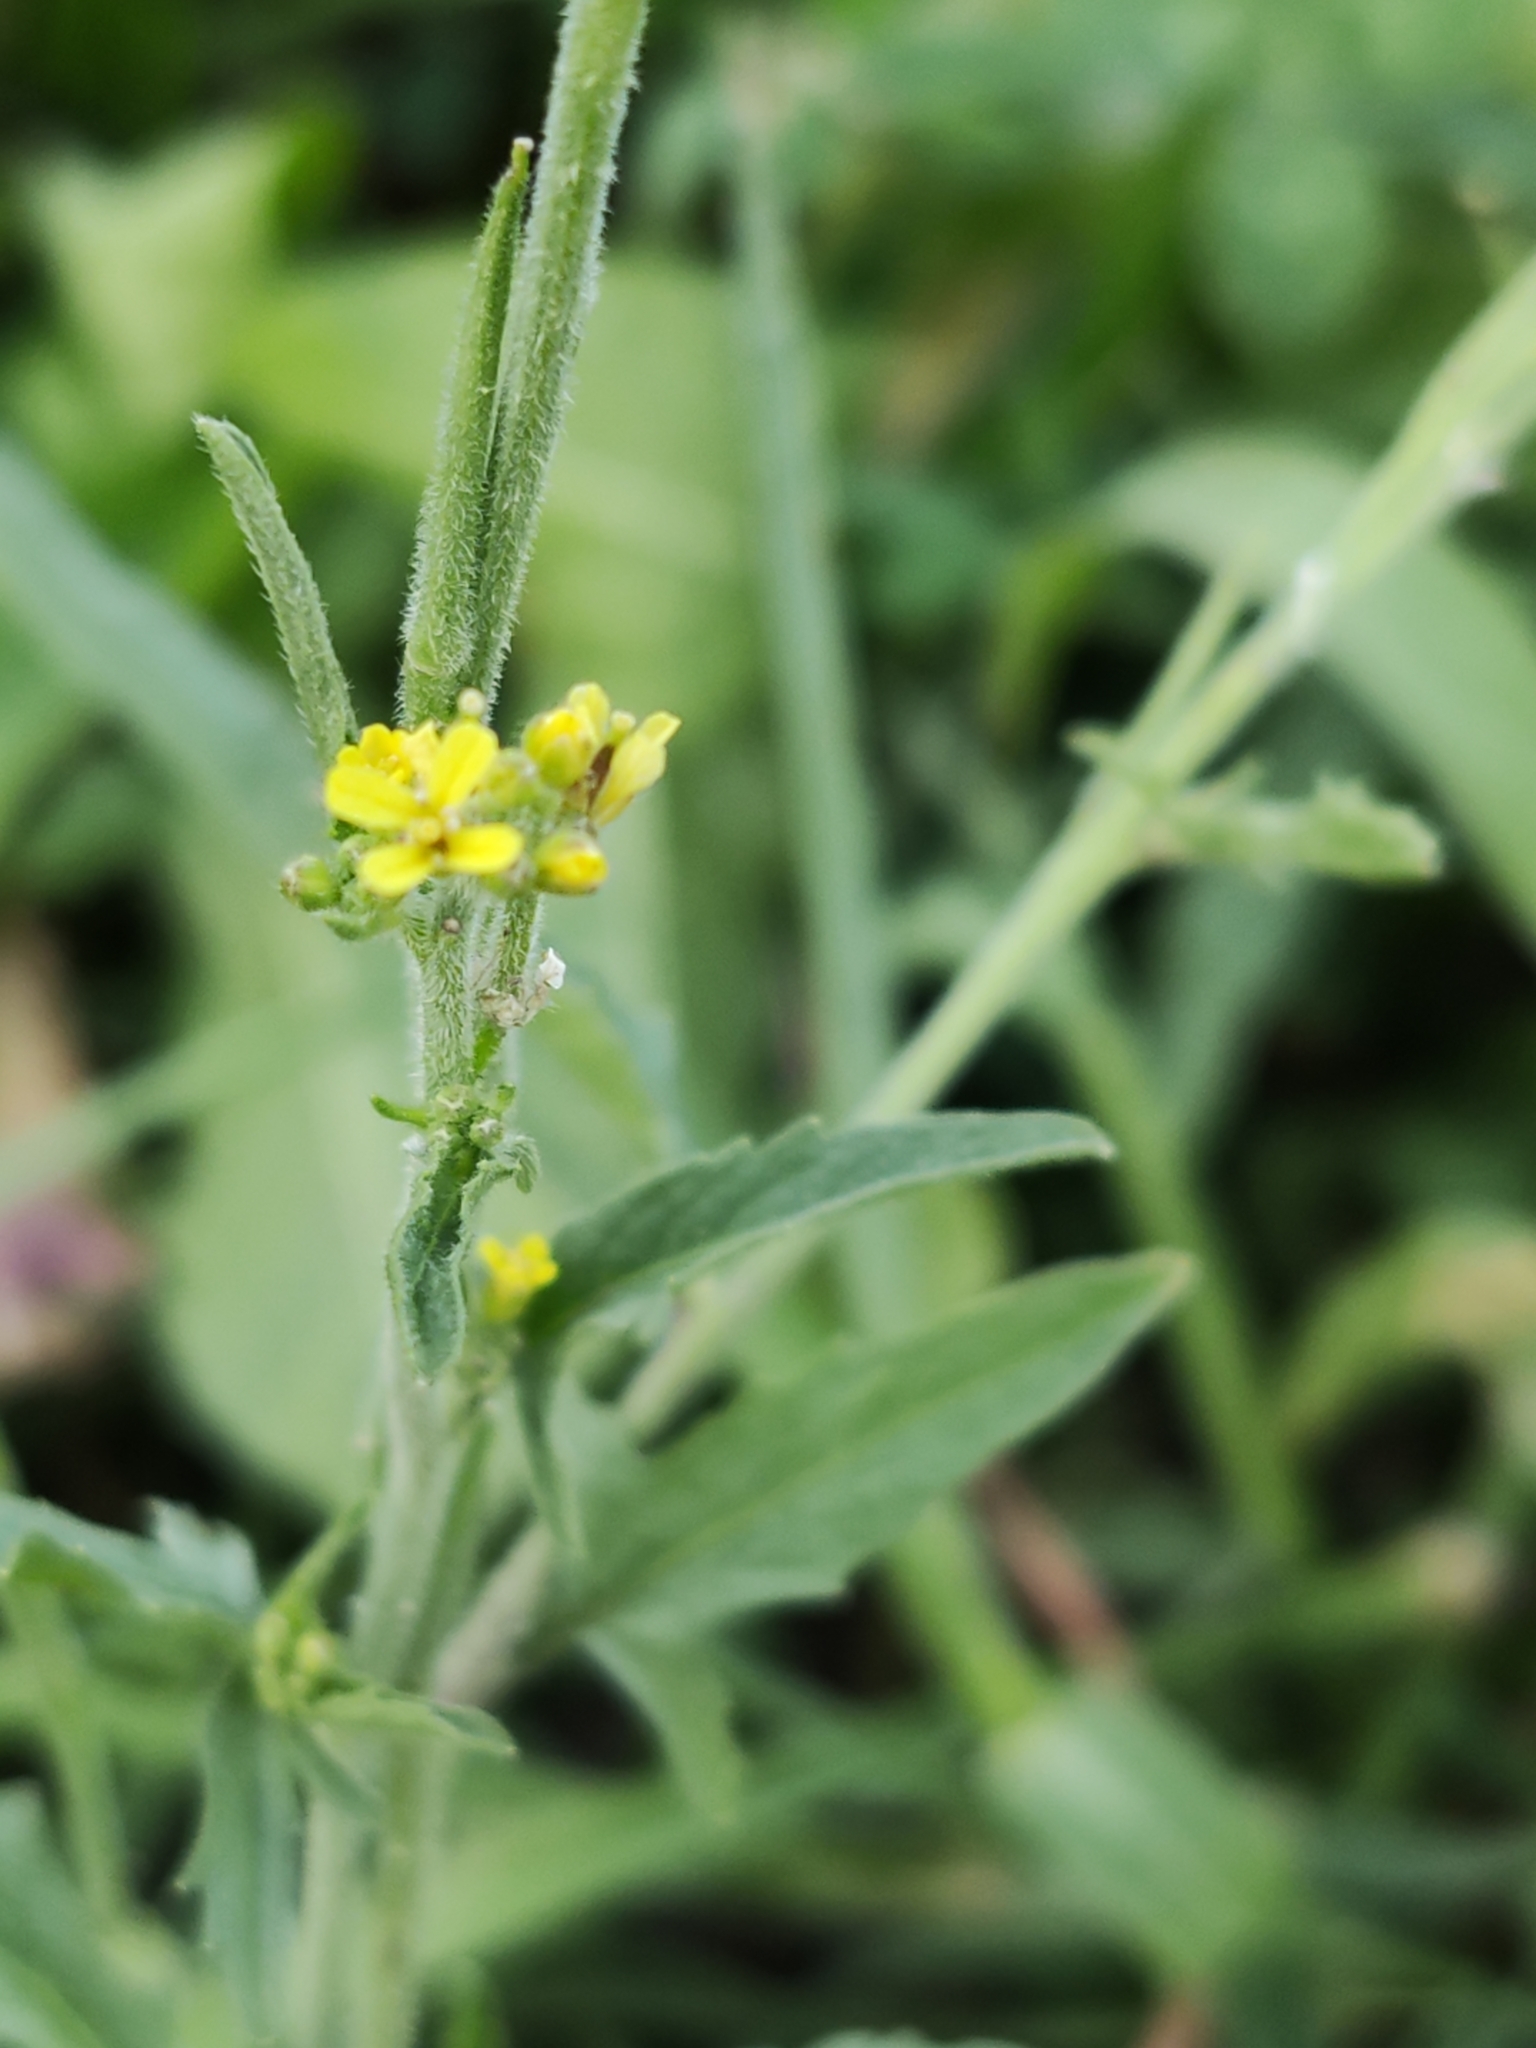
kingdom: Plantae
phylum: Tracheophyta
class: Magnoliopsida
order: Brassicales
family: Brassicaceae
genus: Sisymbrium
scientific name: Sisymbrium officinale
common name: Hedge mustard
